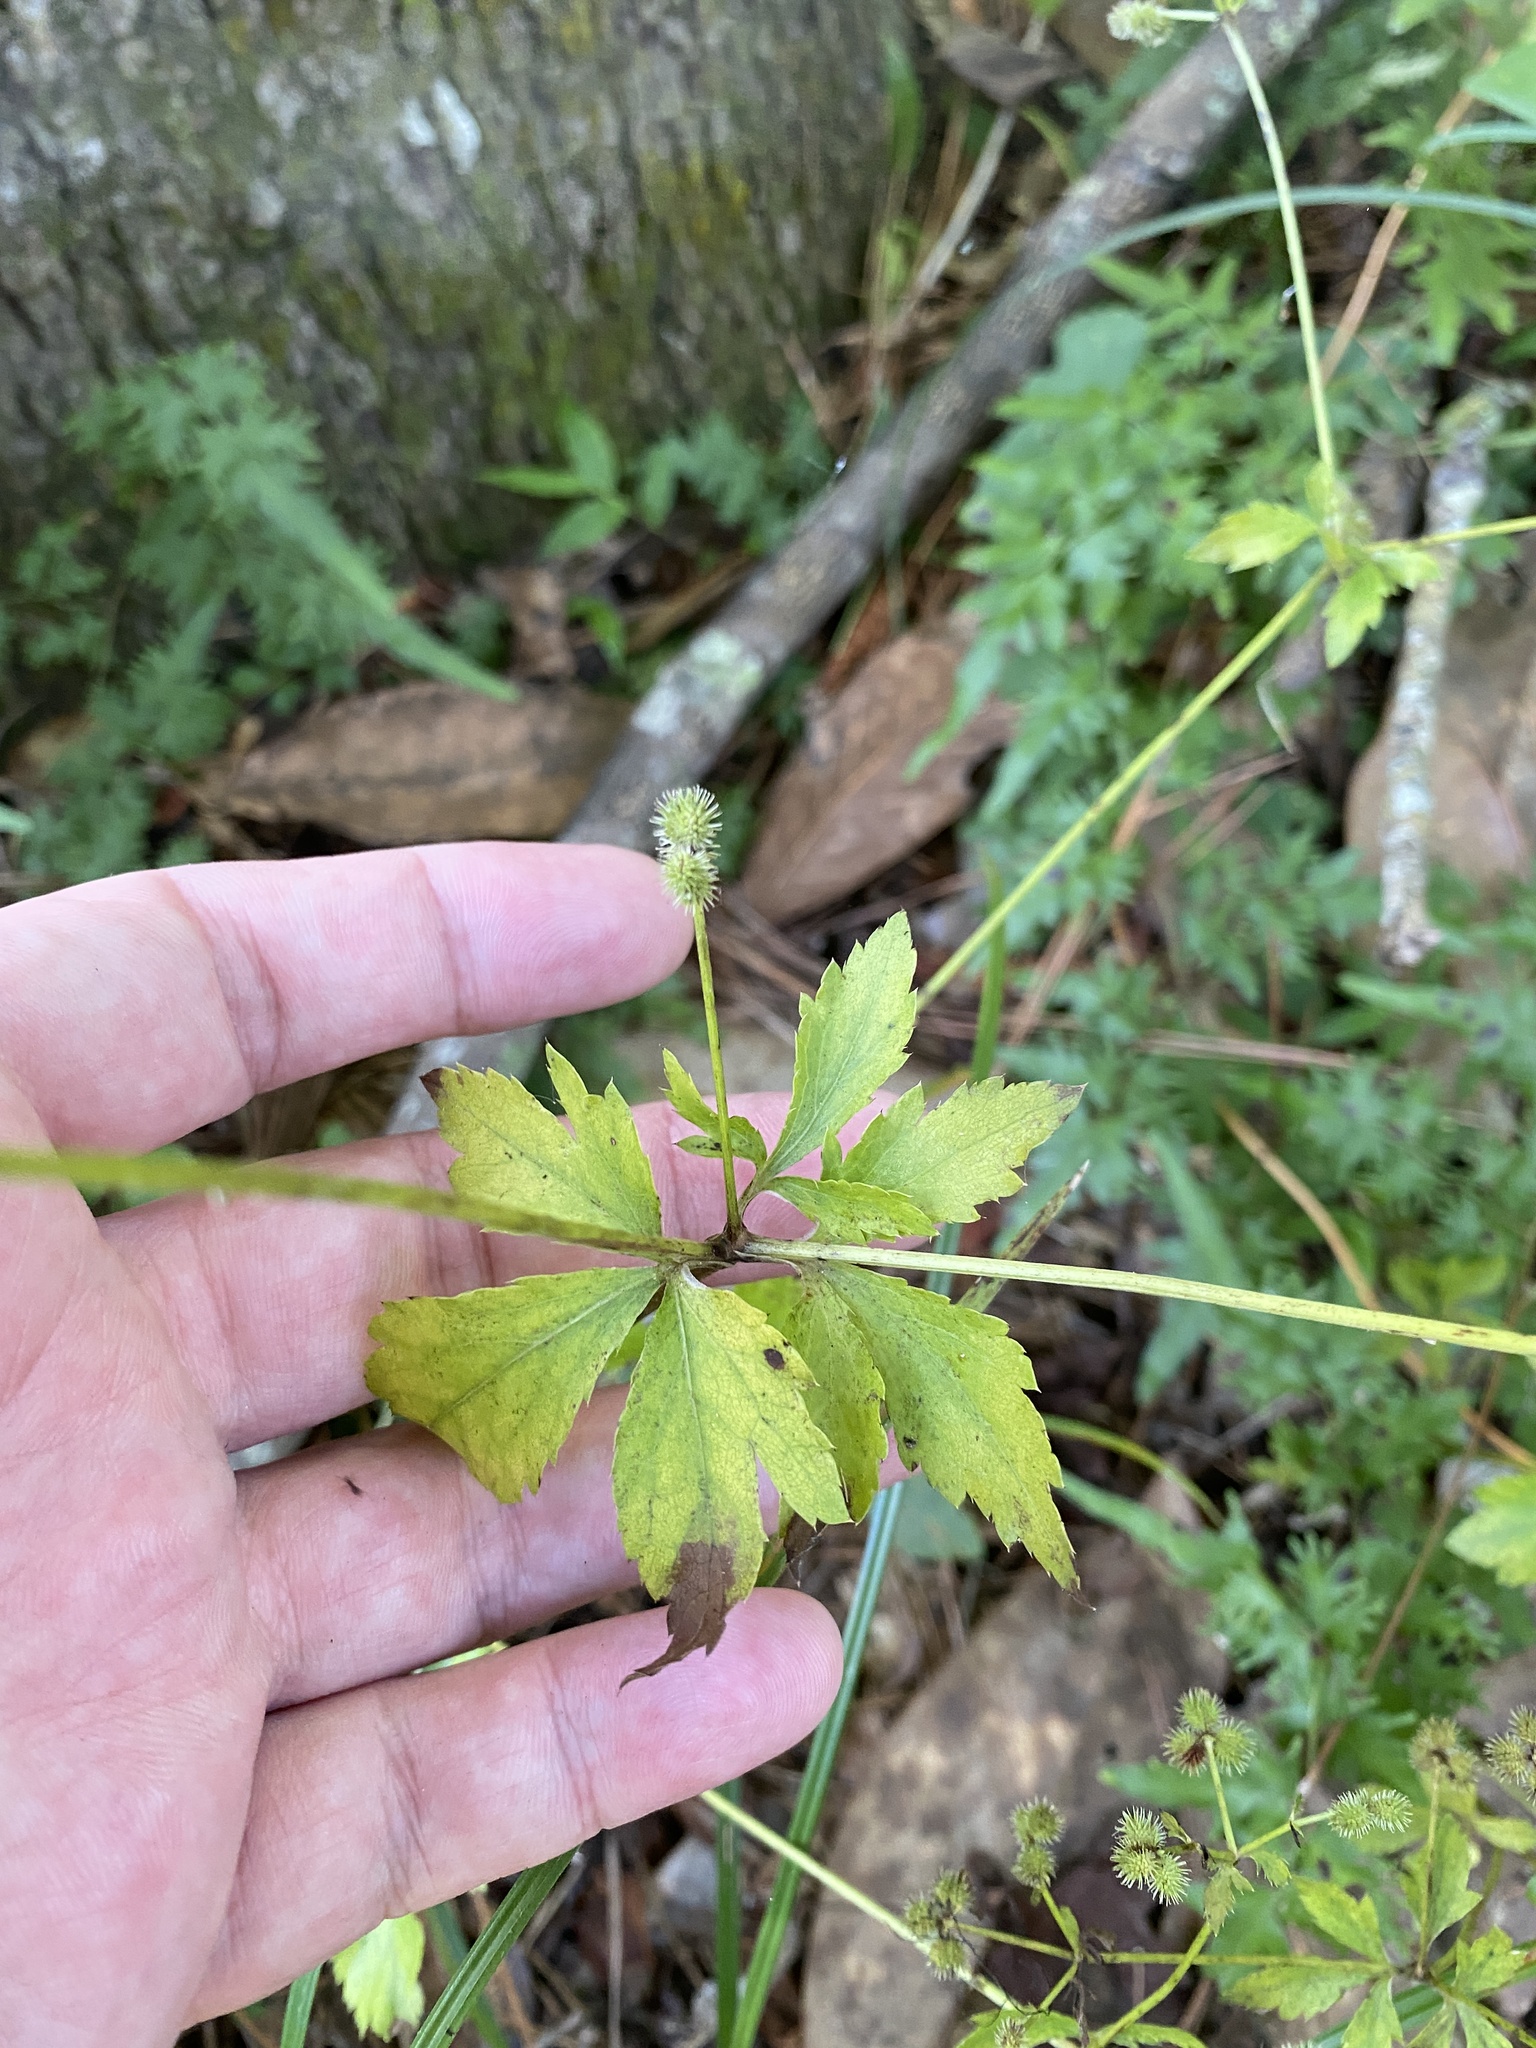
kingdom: Plantae
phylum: Tracheophyta
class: Magnoliopsida
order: Apiales
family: Apiaceae
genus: Sanicula
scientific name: Sanicula canadensis
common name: Canada sanicle
